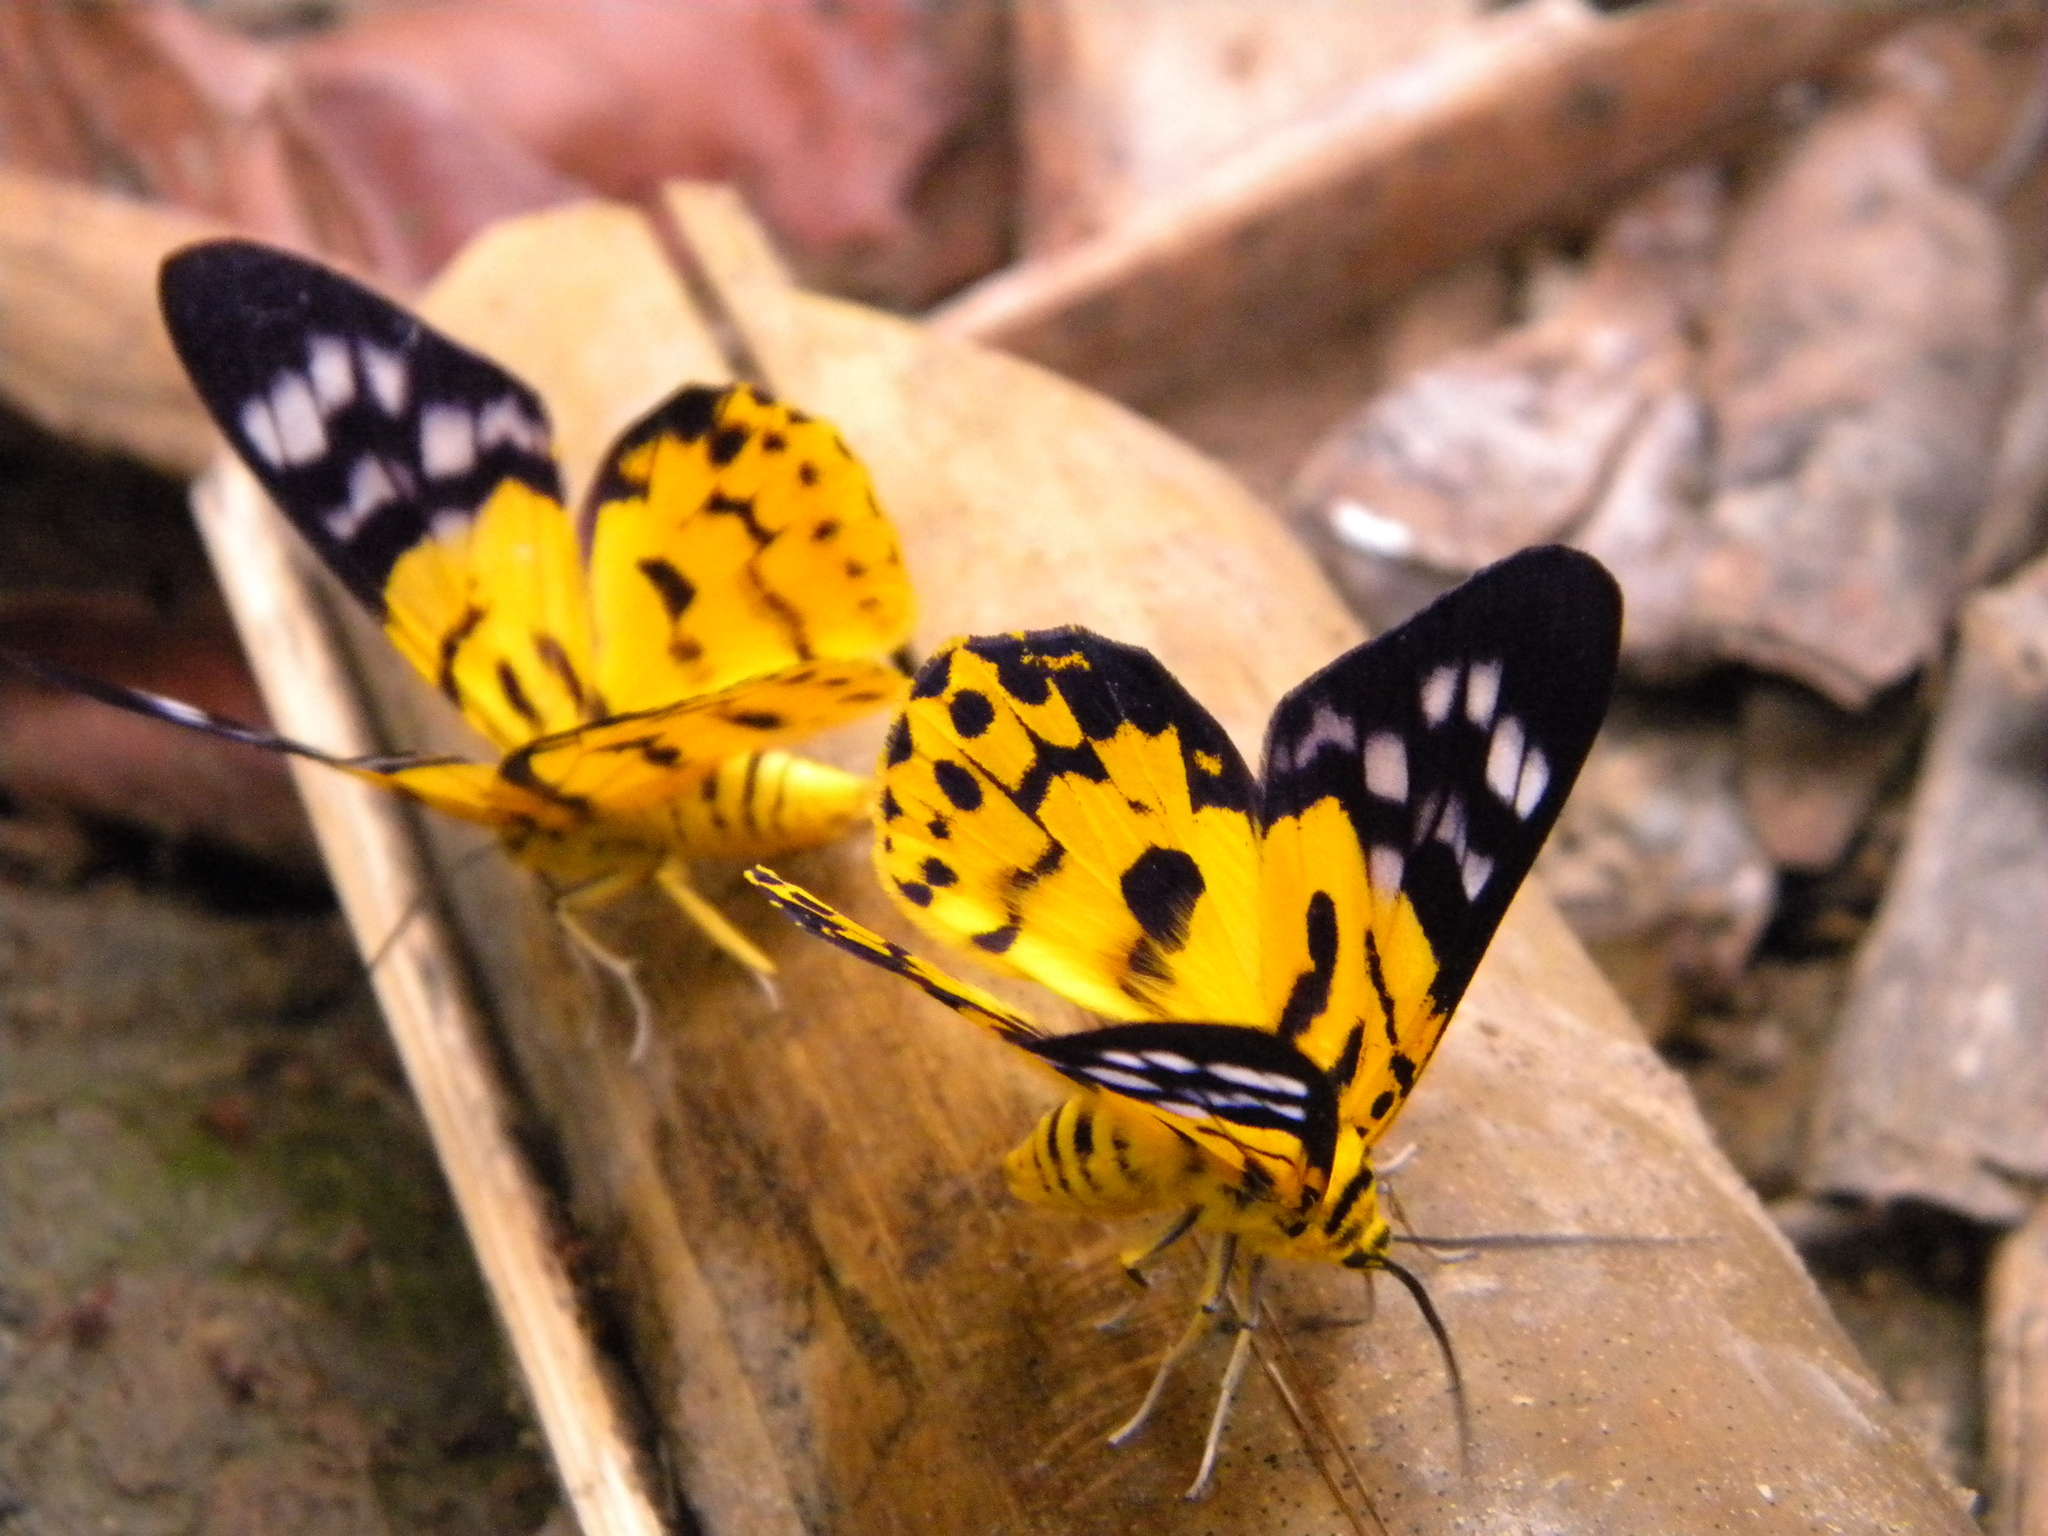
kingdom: Animalia
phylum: Arthropoda
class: Insecta
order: Lepidoptera
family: Geometridae
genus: Dysphania
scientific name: Dysphania militaris
